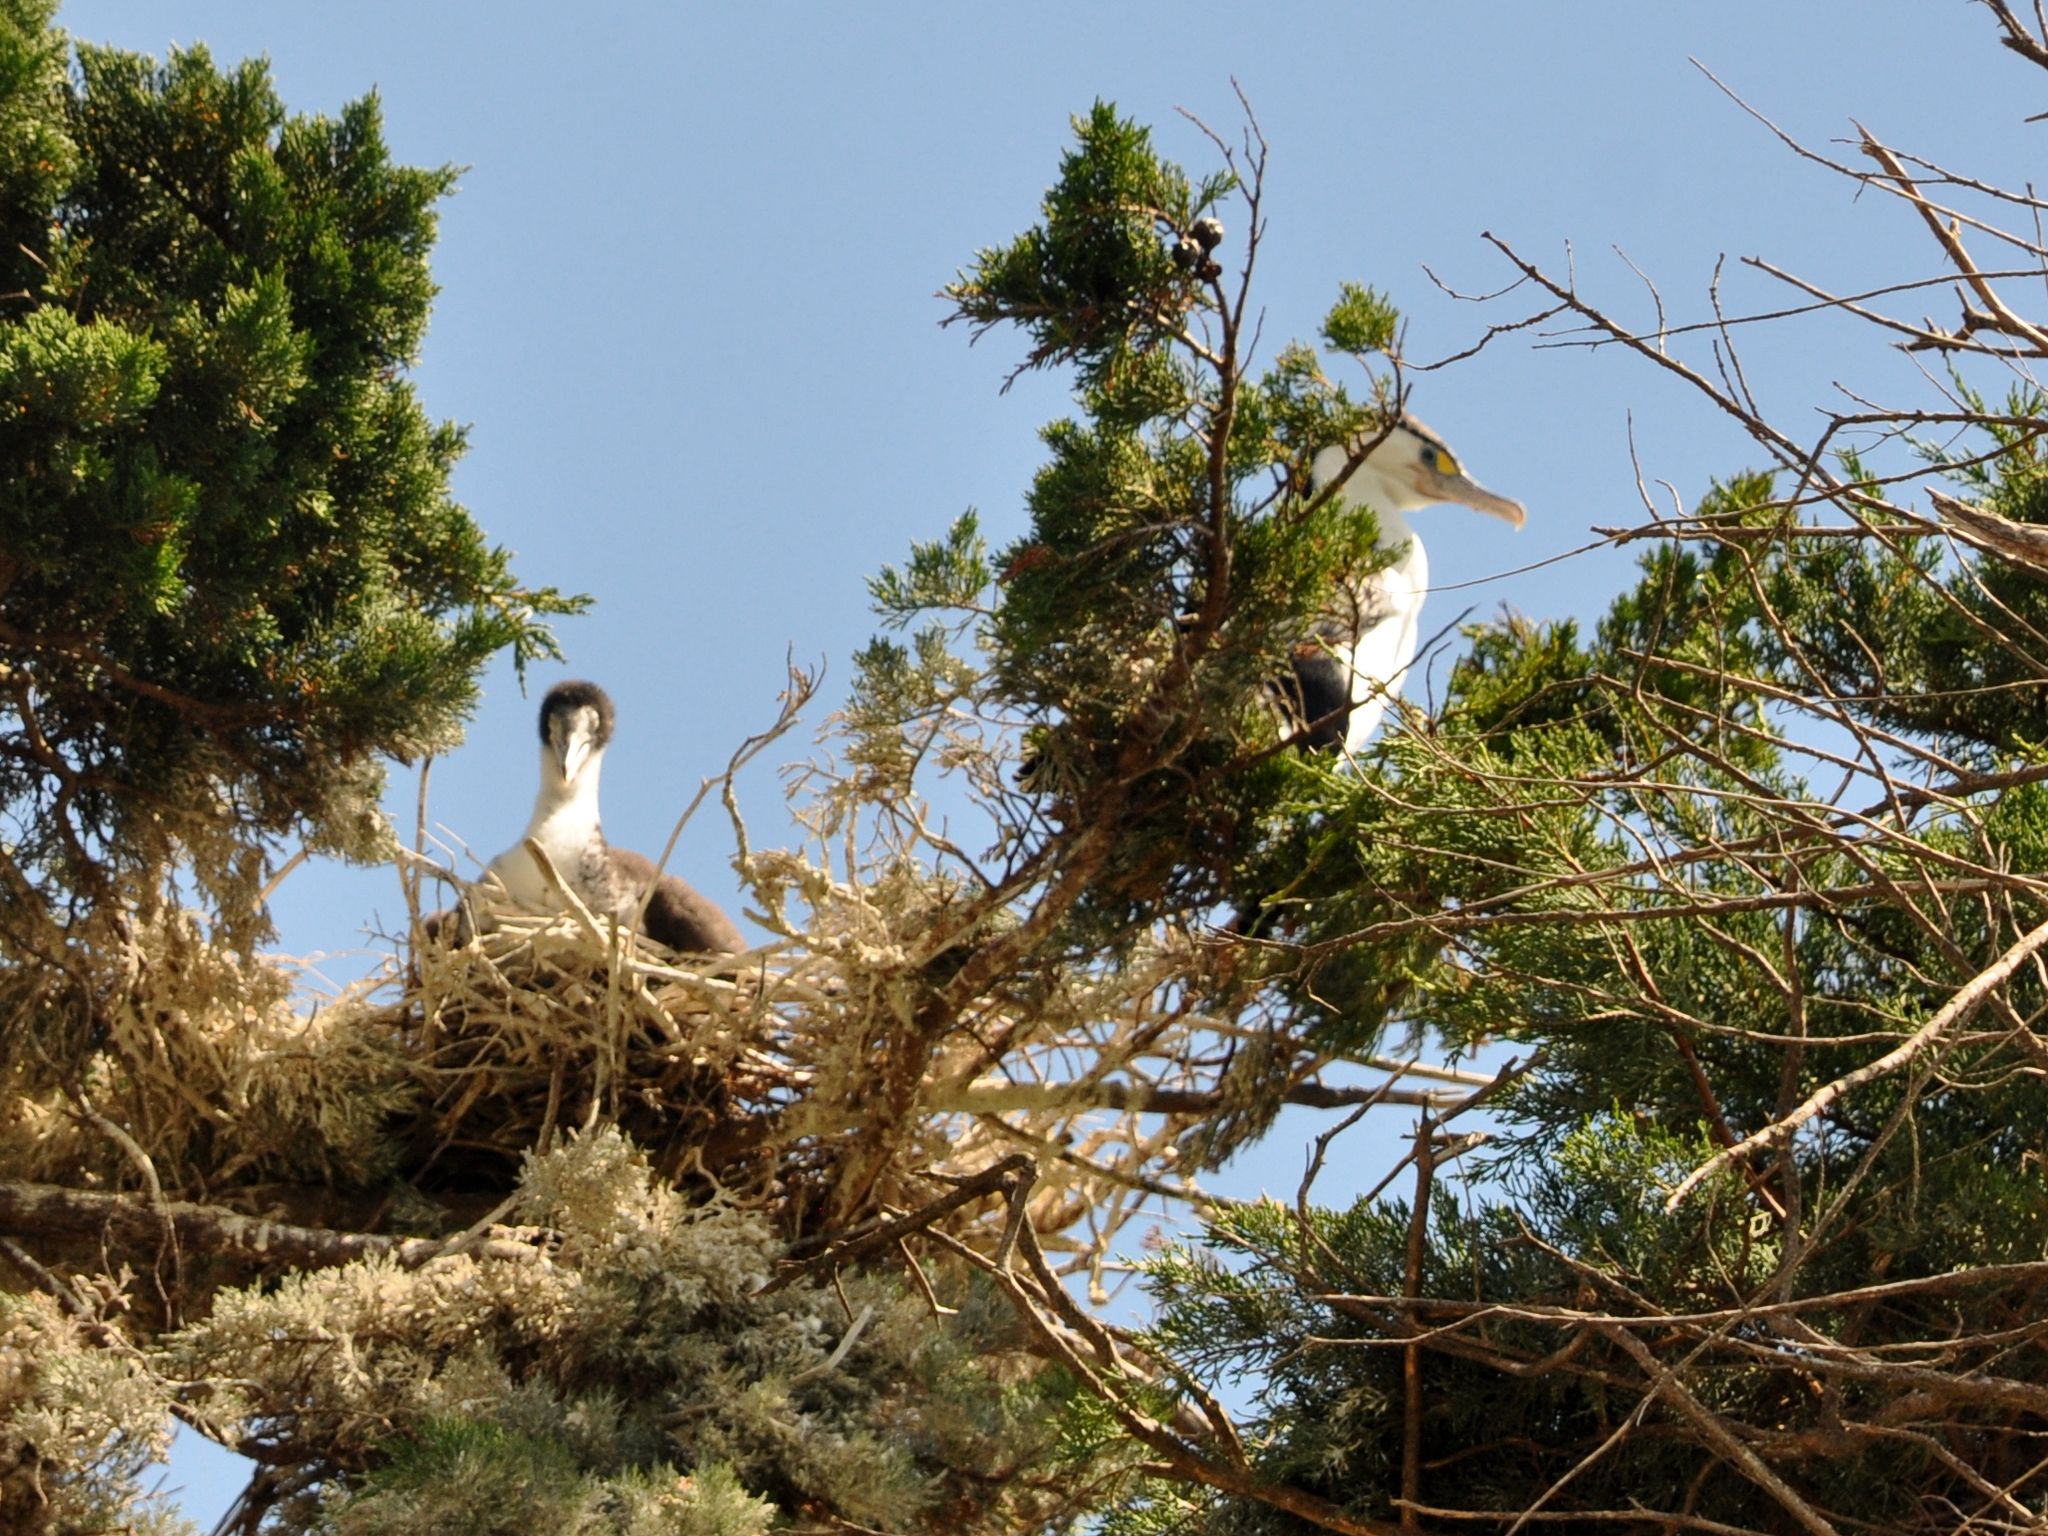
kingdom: Animalia
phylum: Chordata
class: Aves
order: Suliformes
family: Phalacrocoracidae
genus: Phalacrocorax
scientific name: Phalacrocorax varius
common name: Pied cormorant
